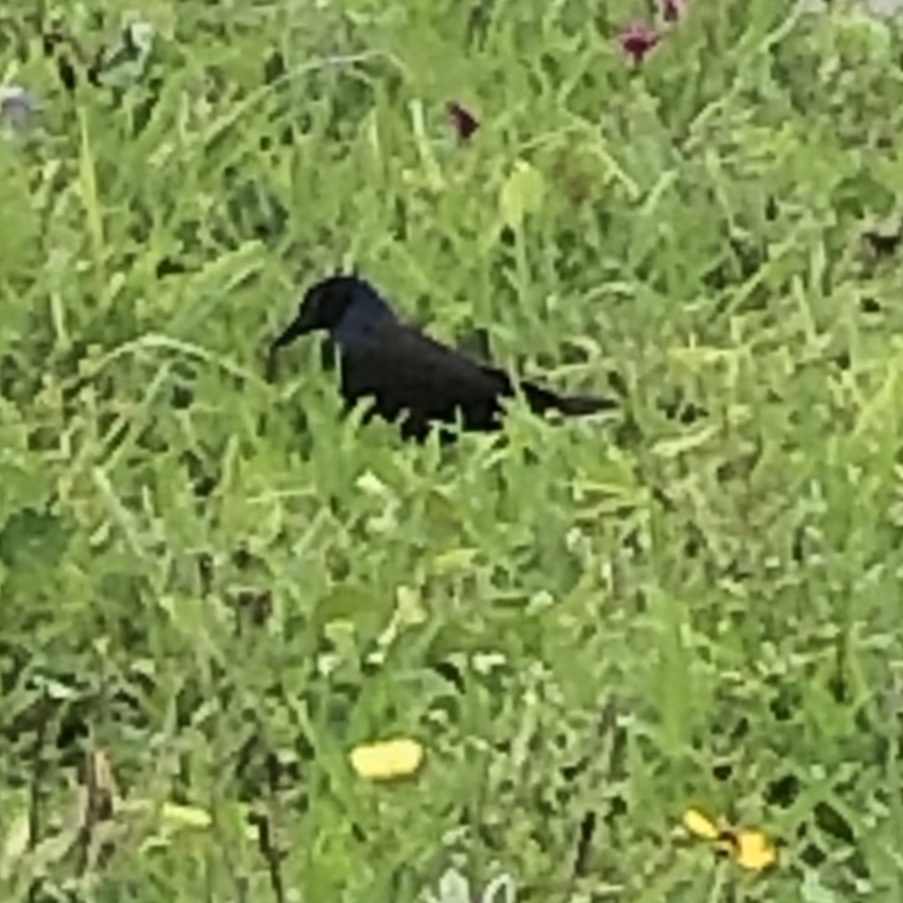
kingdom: Animalia
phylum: Chordata
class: Aves
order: Passeriformes
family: Icteridae
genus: Quiscalus
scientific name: Quiscalus quiscula
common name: Common grackle
